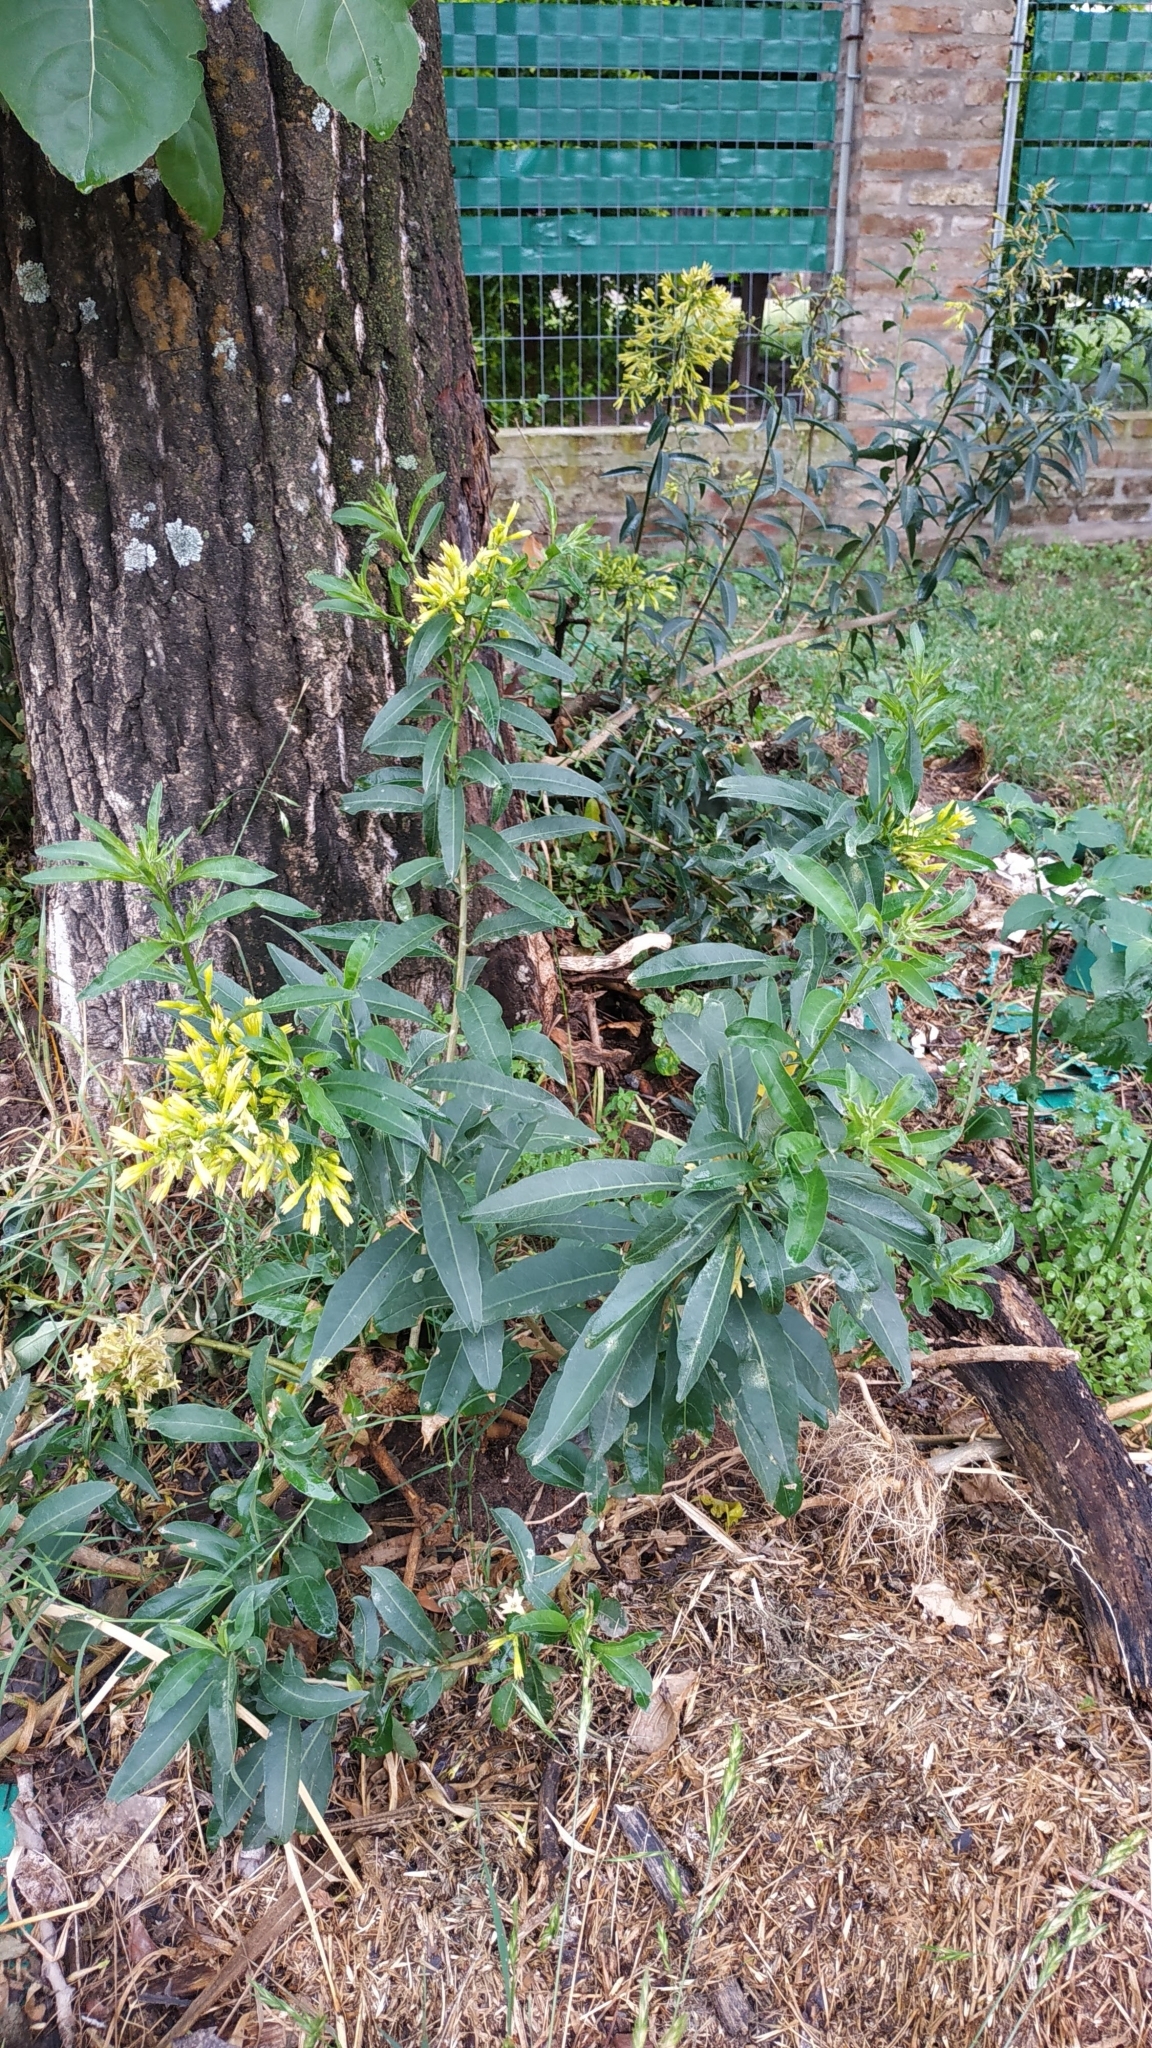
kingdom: Plantae
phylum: Tracheophyta
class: Magnoliopsida
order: Solanales
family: Solanaceae
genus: Cestrum
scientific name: Cestrum parqui
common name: Chilean cestrum
